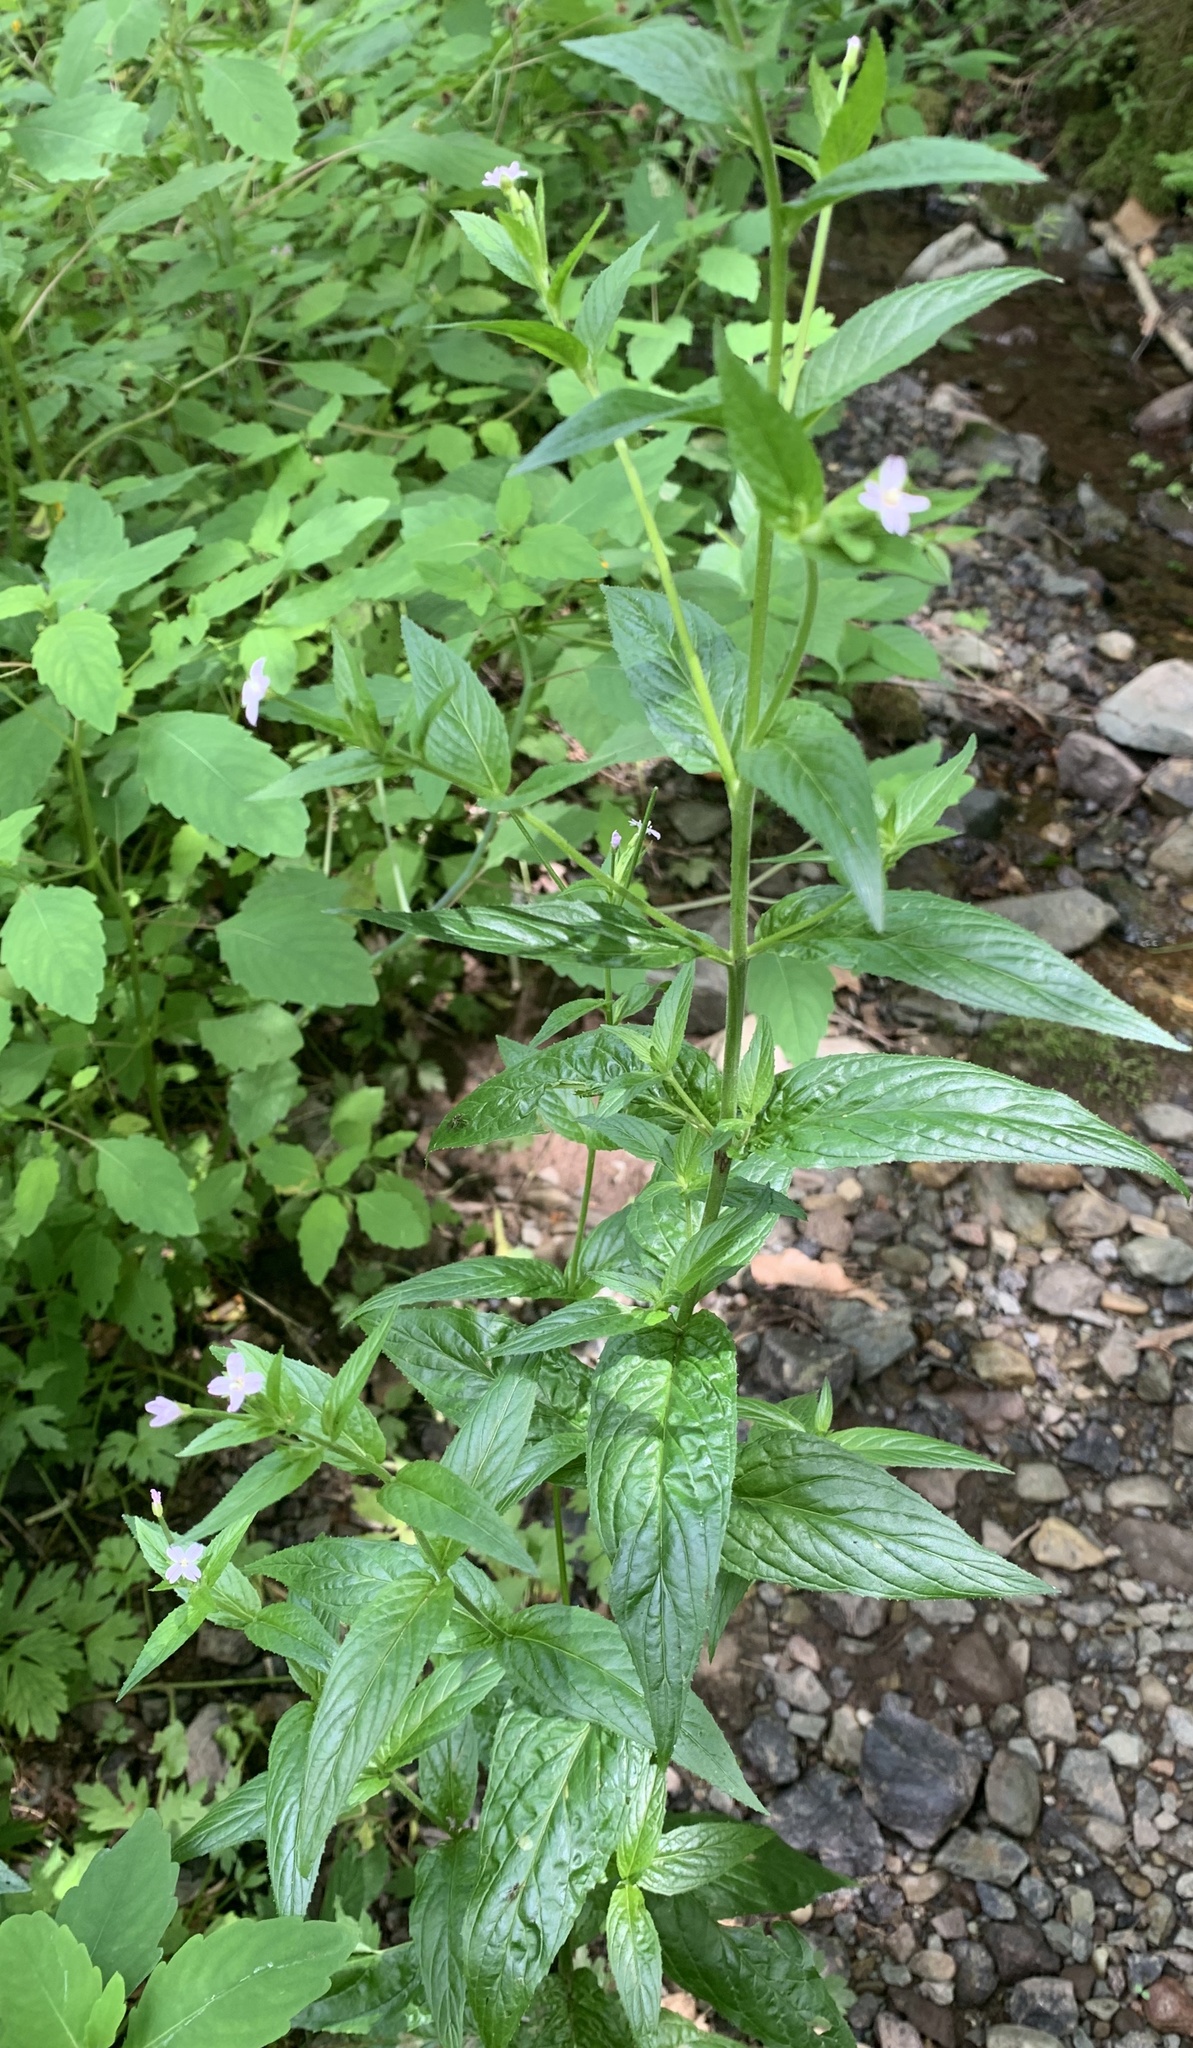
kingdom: Plantae
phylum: Tracheophyta
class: Magnoliopsida
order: Myrtales
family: Onagraceae
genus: Epilobium
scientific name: Epilobium ciliatum
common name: American willowherb
